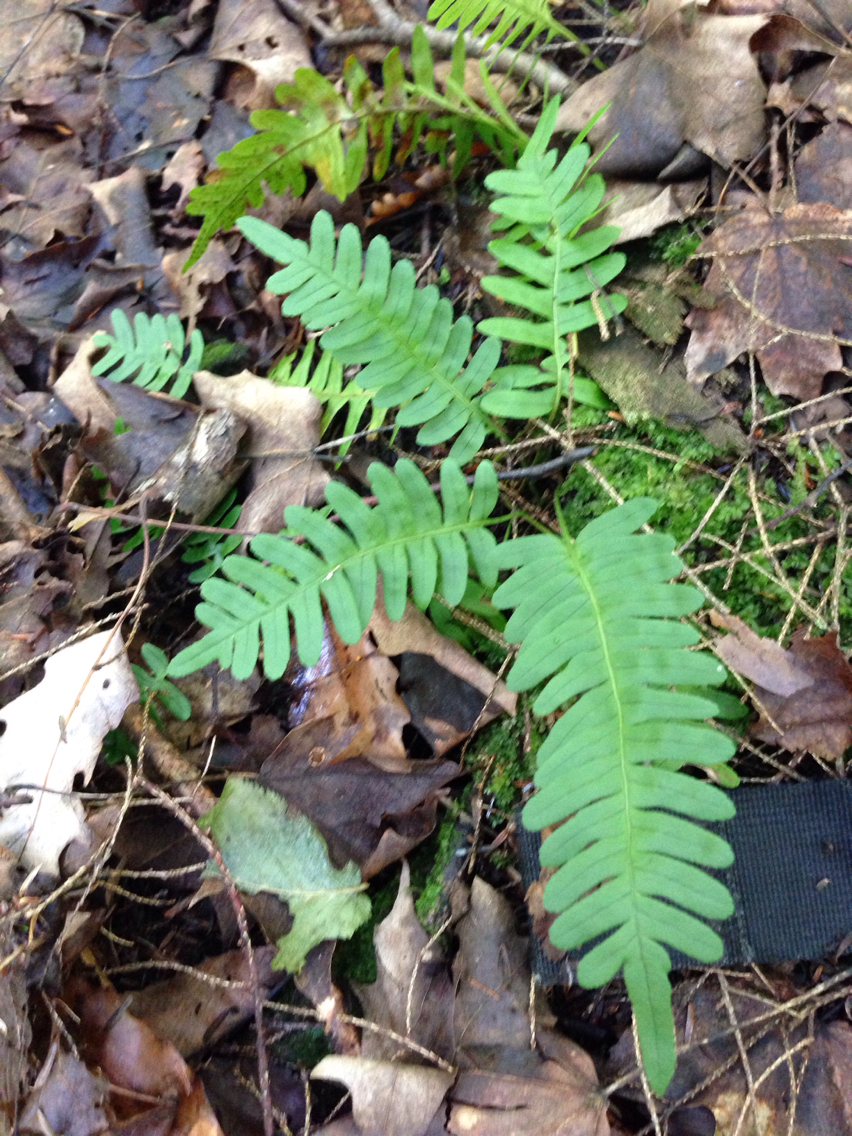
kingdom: Plantae
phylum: Tracheophyta
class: Polypodiopsida
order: Polypodiales
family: Polypodiaceae
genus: Polypodium
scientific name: Polypodium virginianum
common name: American wall fern
